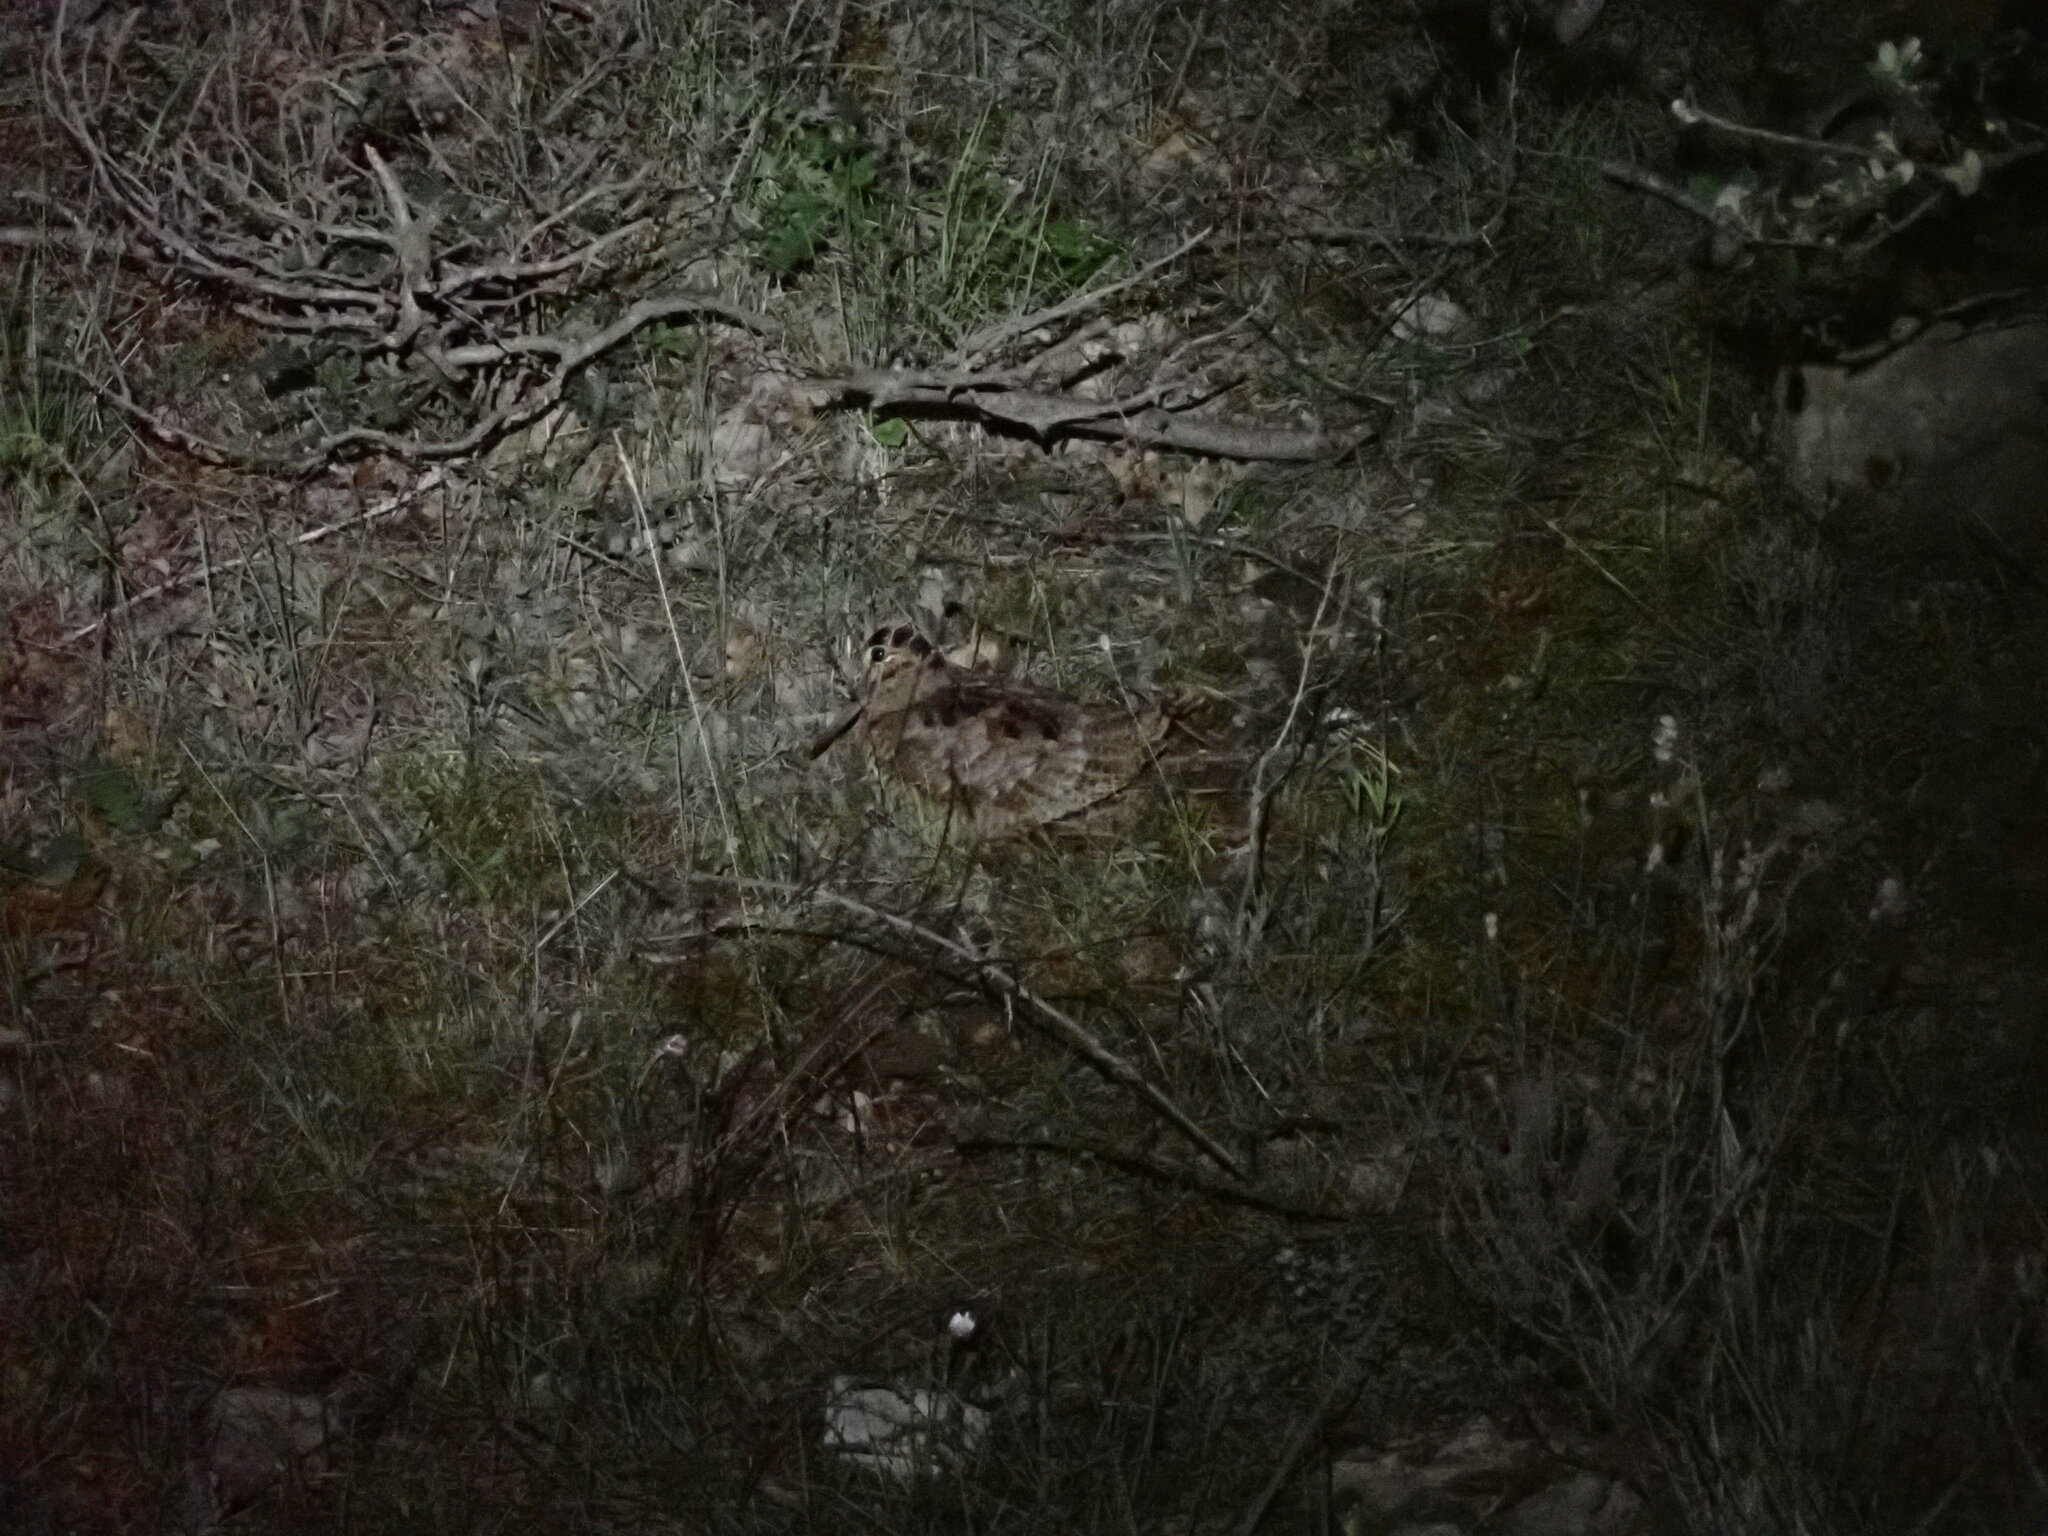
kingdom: Animalia
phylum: Chordata
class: Aves
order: Charadriiformes
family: Scolopacidae
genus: Scolopax
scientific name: Scolopax rusticola
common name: Eurasian woodcock
